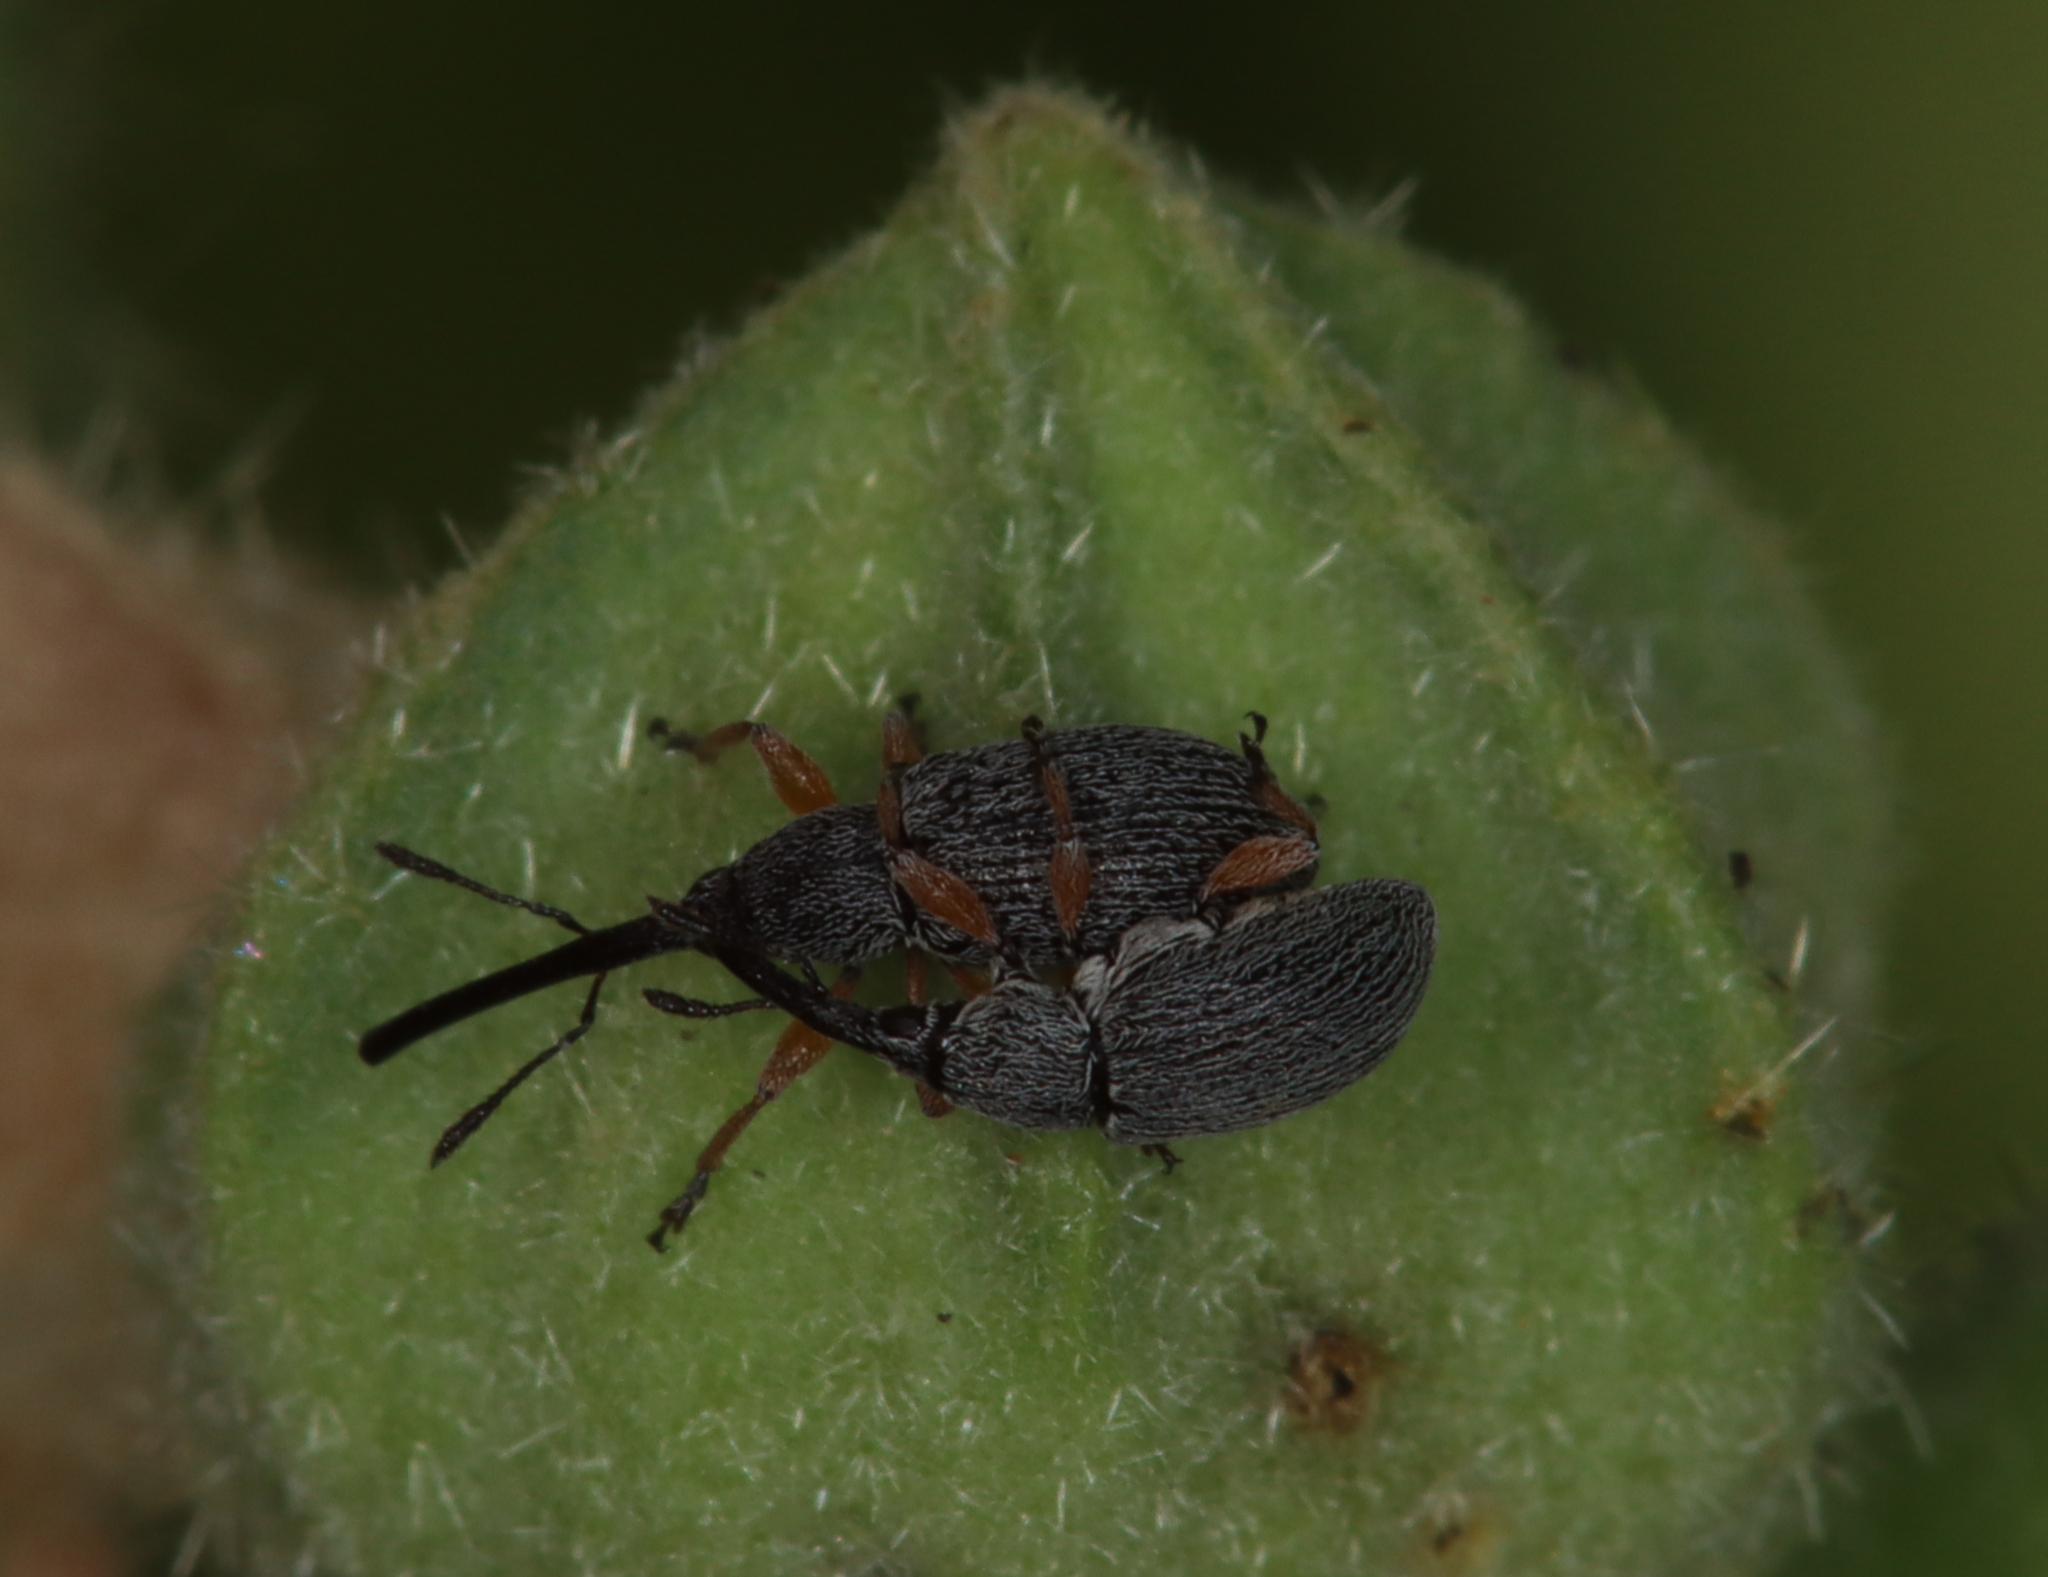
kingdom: Animalia
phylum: Arthropoda
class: Insecta
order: Coleoptera
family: Brentidae
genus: Rhopalapion
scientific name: Rhopalapion longirostre
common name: Hollyhock weevil
